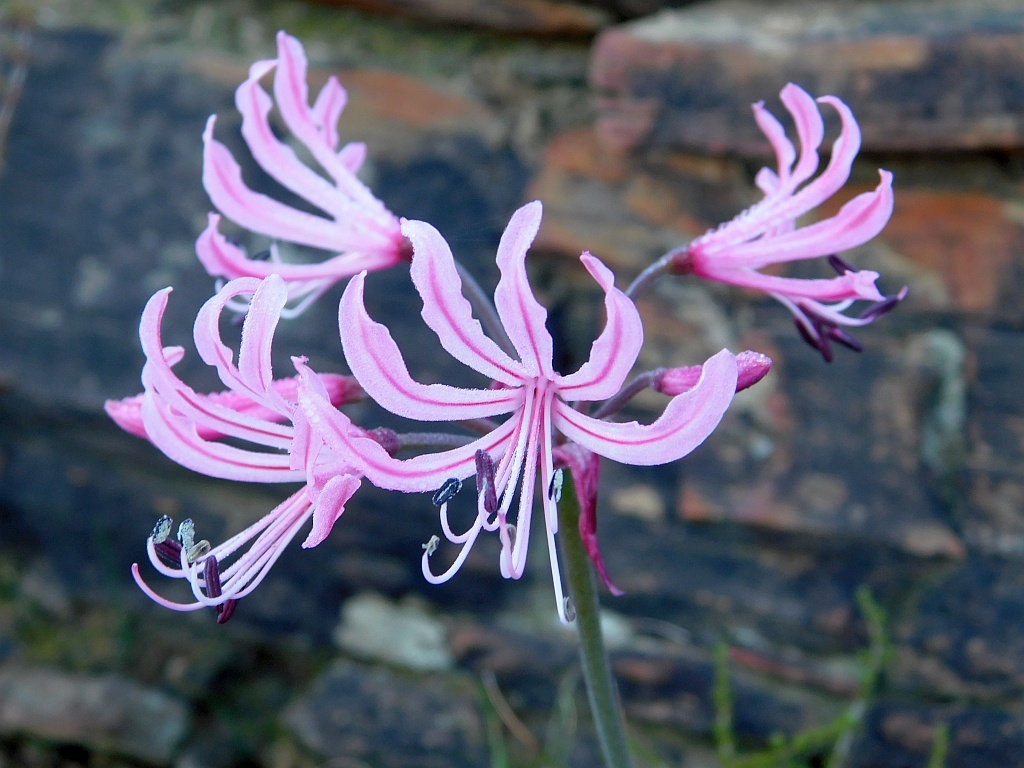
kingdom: Plantae
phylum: Tracheophyta
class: Liliopsida
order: Asparagales
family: Amaryllidaceae
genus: Nerine
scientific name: Nerine humilis
